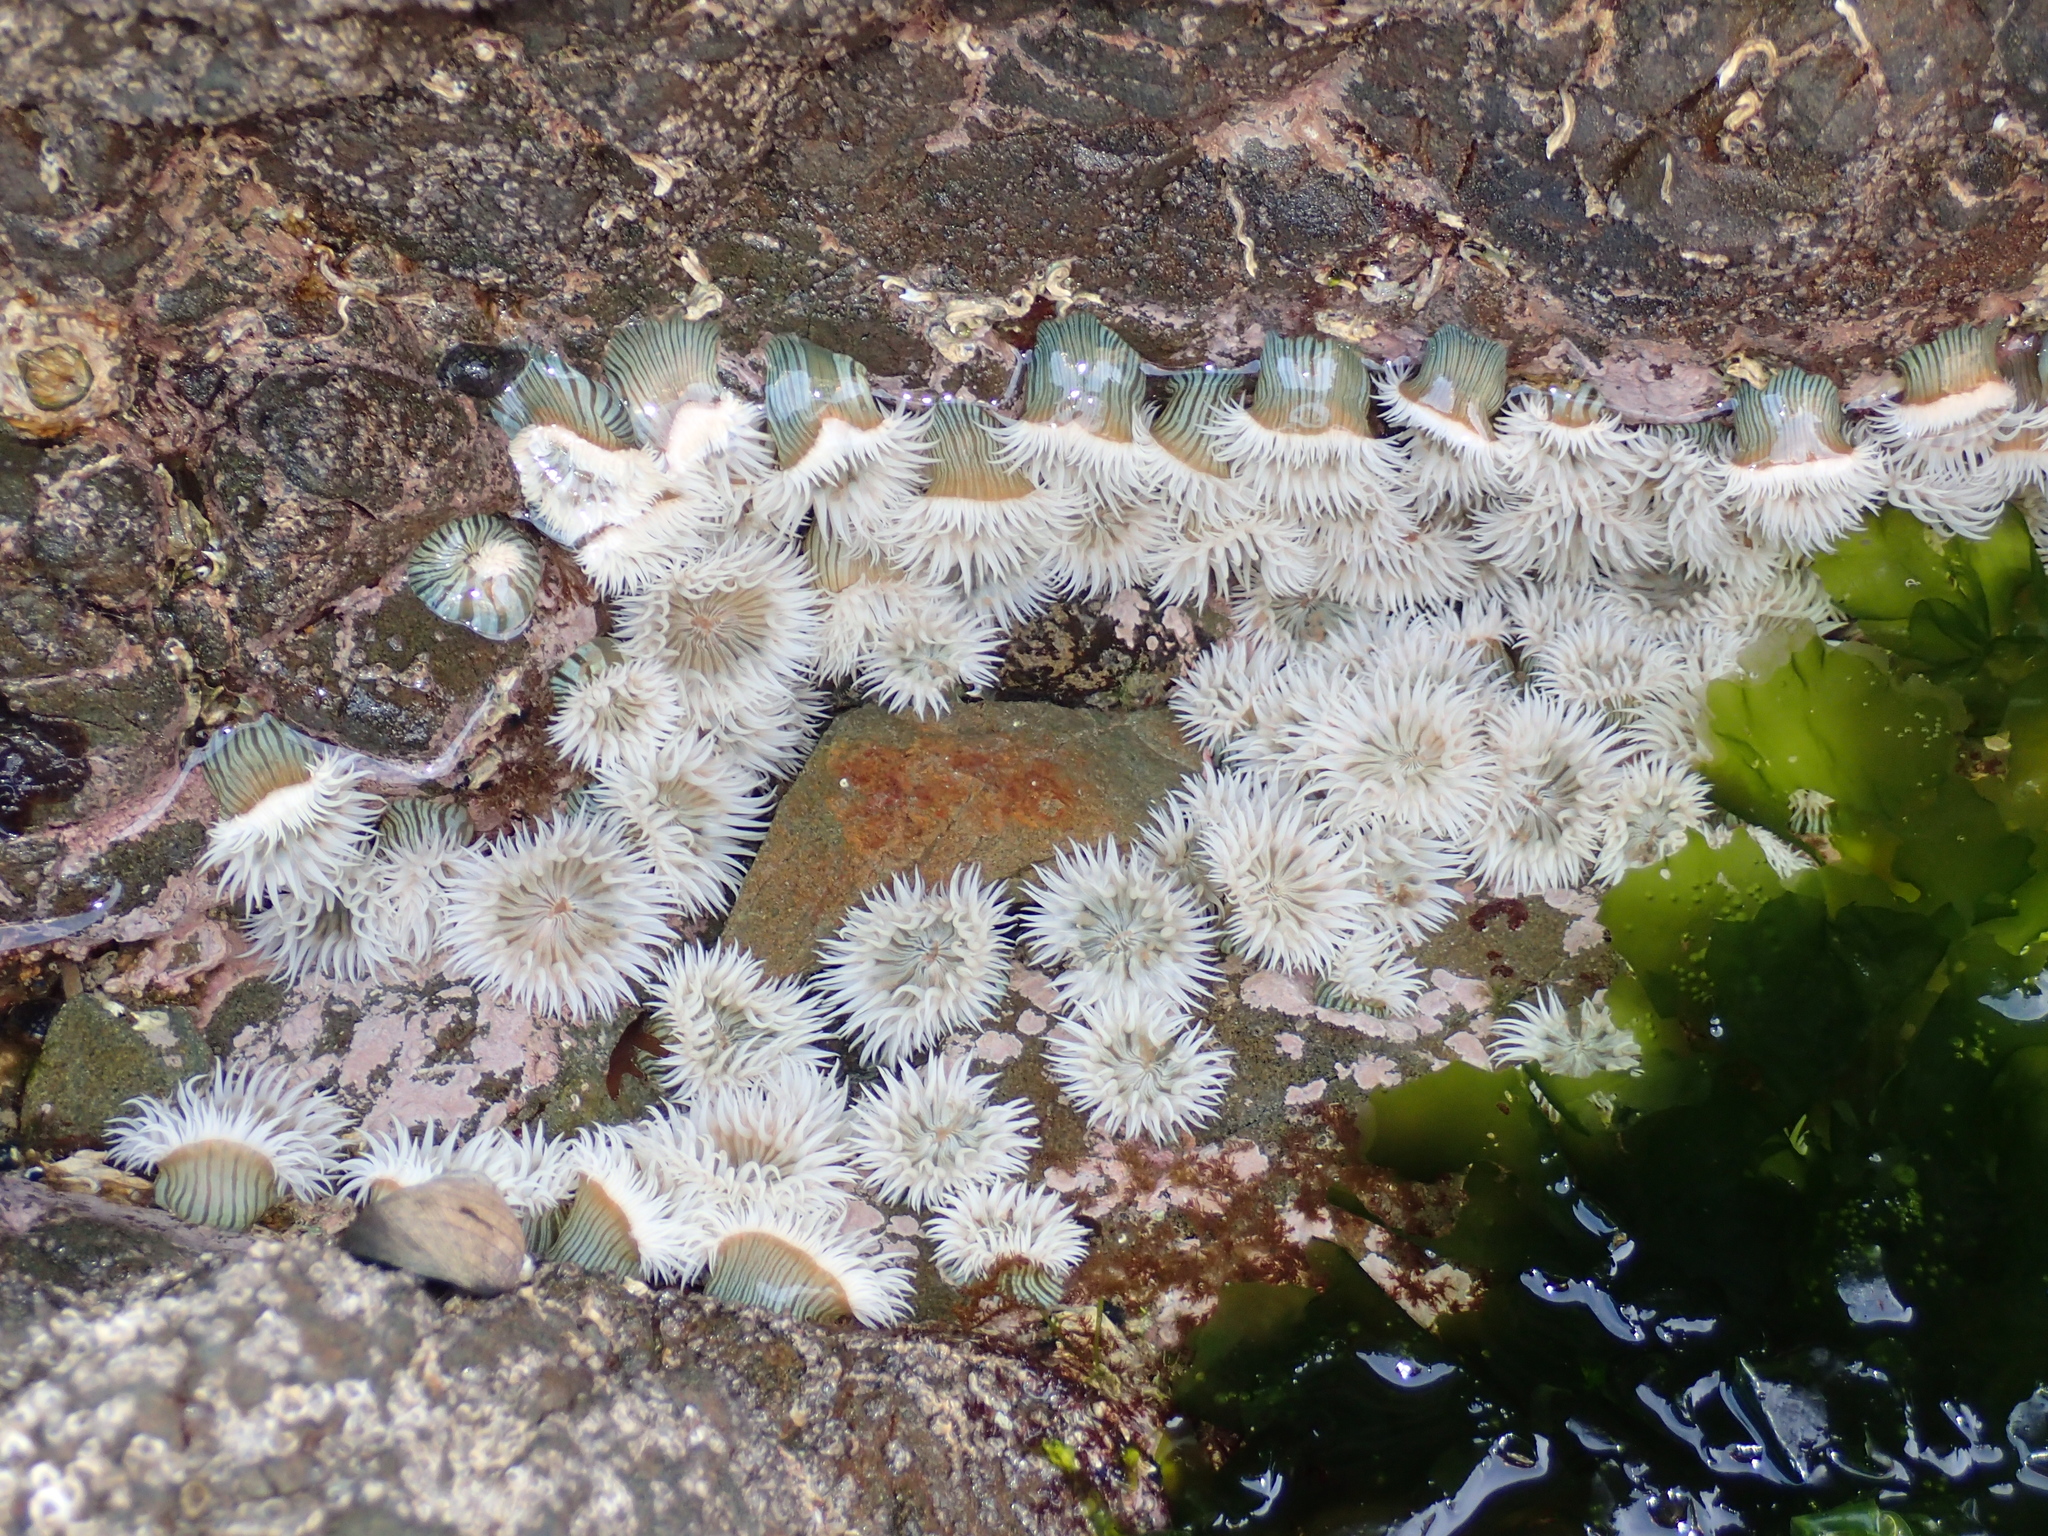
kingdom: Animalia
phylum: Cnidaria
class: Anthozoa
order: Actiniaria
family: Sagartiidae
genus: Anthothoe
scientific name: Anthothoe albocincta
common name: Orange striped anemone
